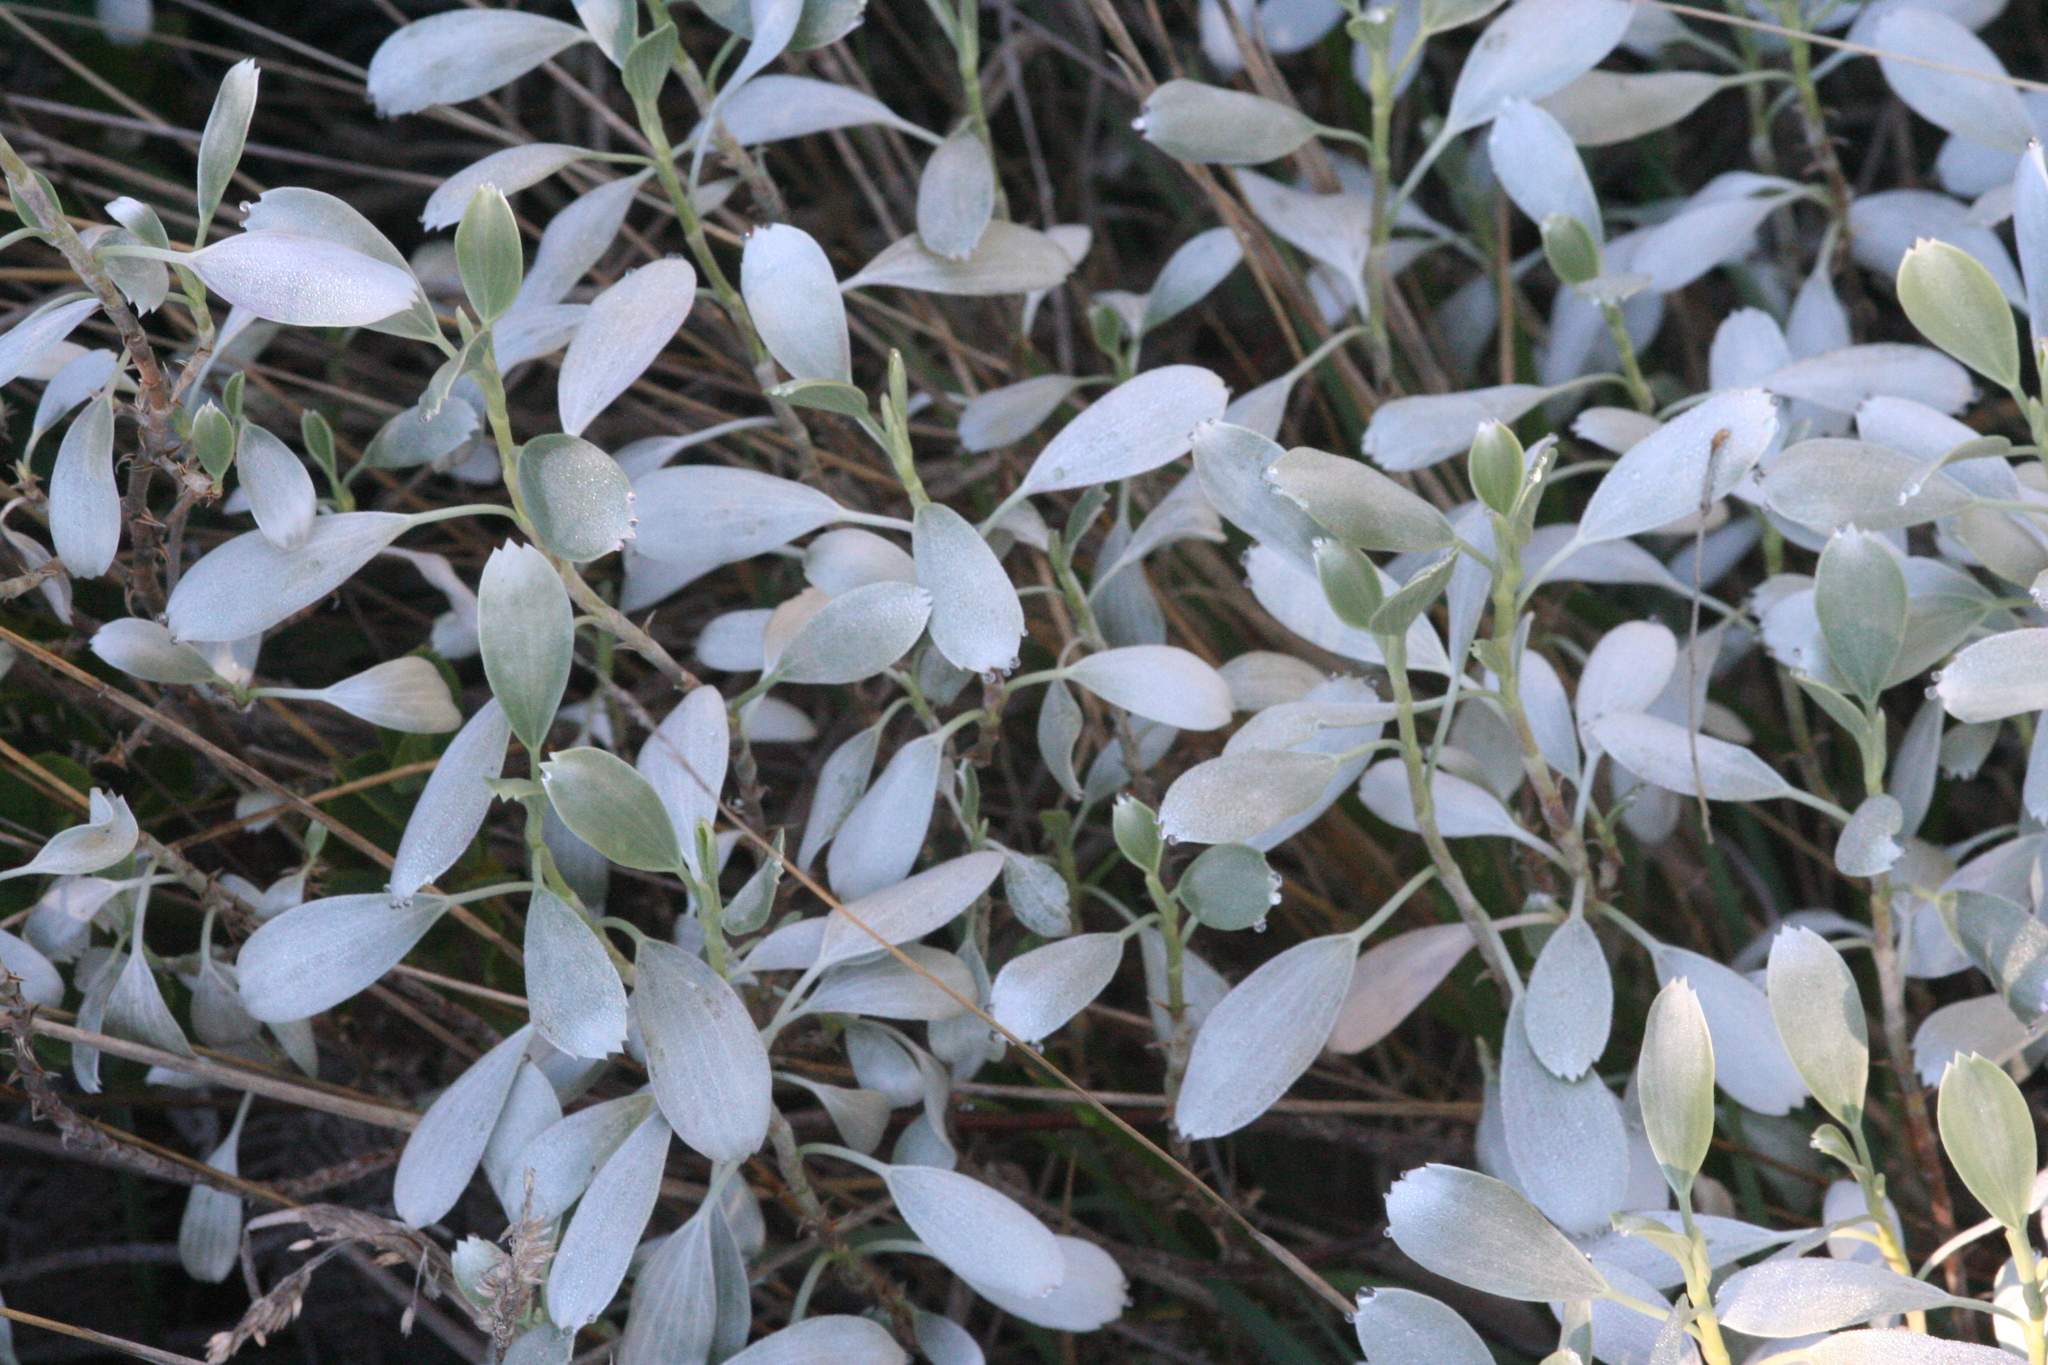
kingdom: Plantae
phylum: Tracheophyta
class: Magnoliopsida
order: Geraniales
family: Geraniaceae
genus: Geranium
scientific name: Geranium cuneatum
